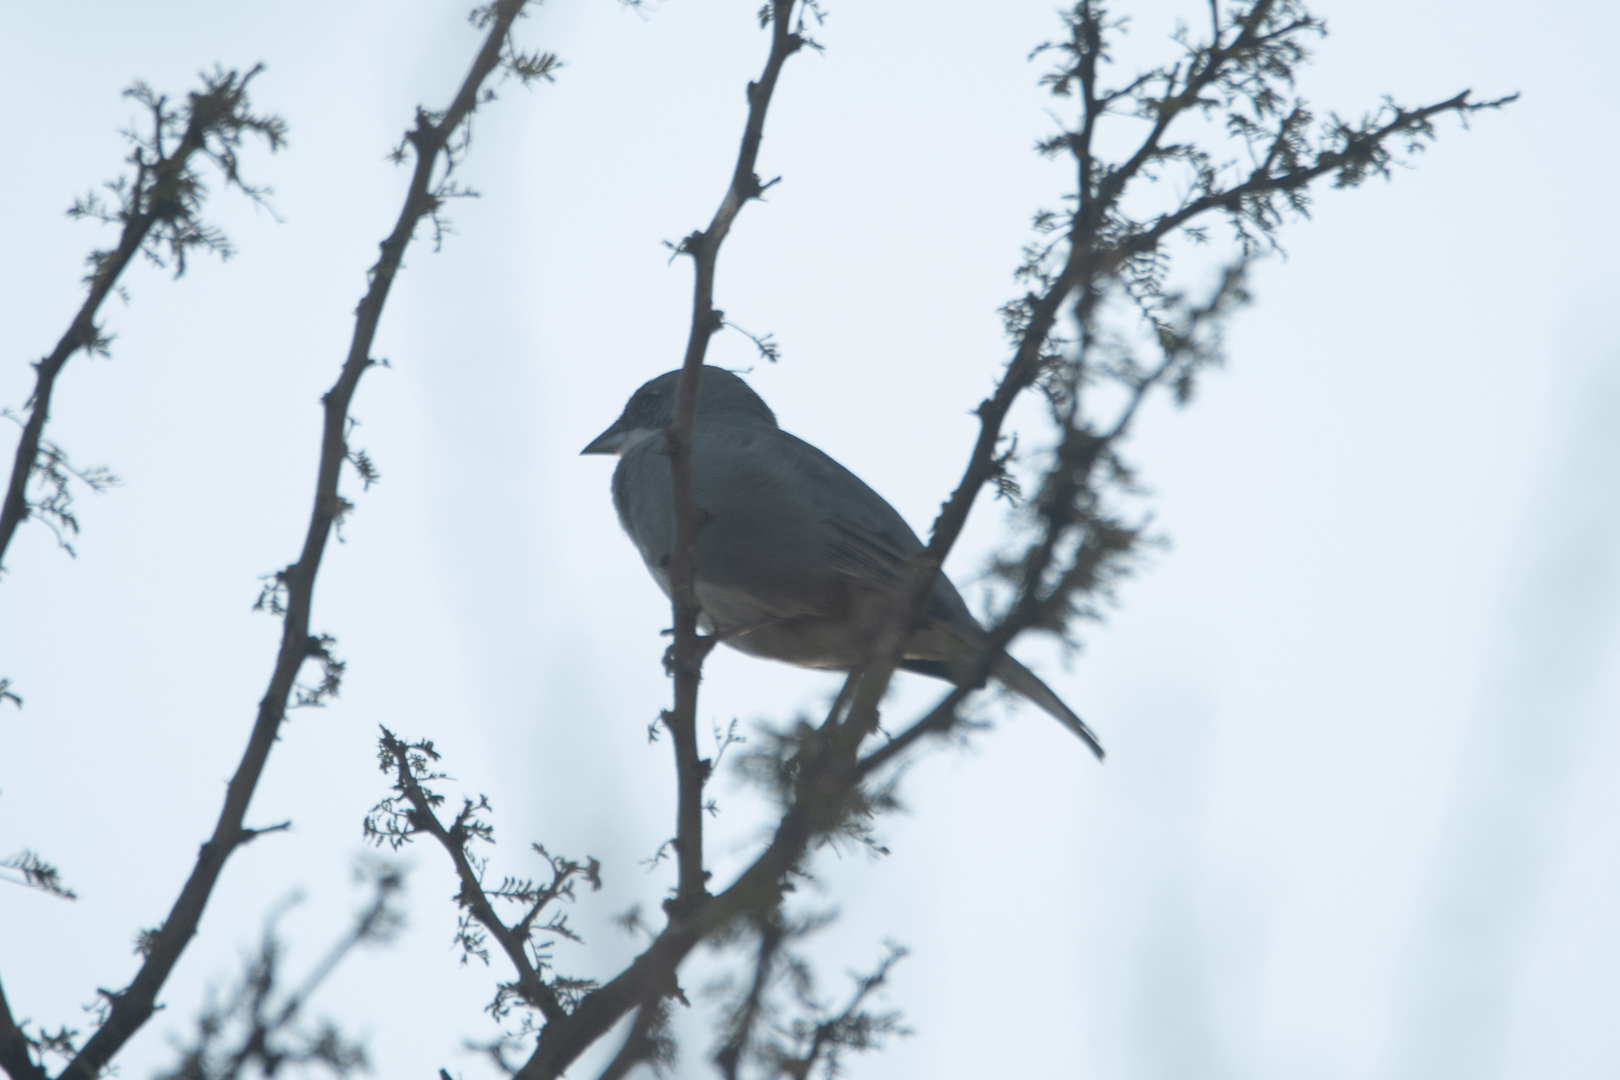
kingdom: Animalia
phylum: Chordata
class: Aves
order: Passeriformes
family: Thraupidae
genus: Diuca
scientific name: Diuca diuca
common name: Common diuca finch
